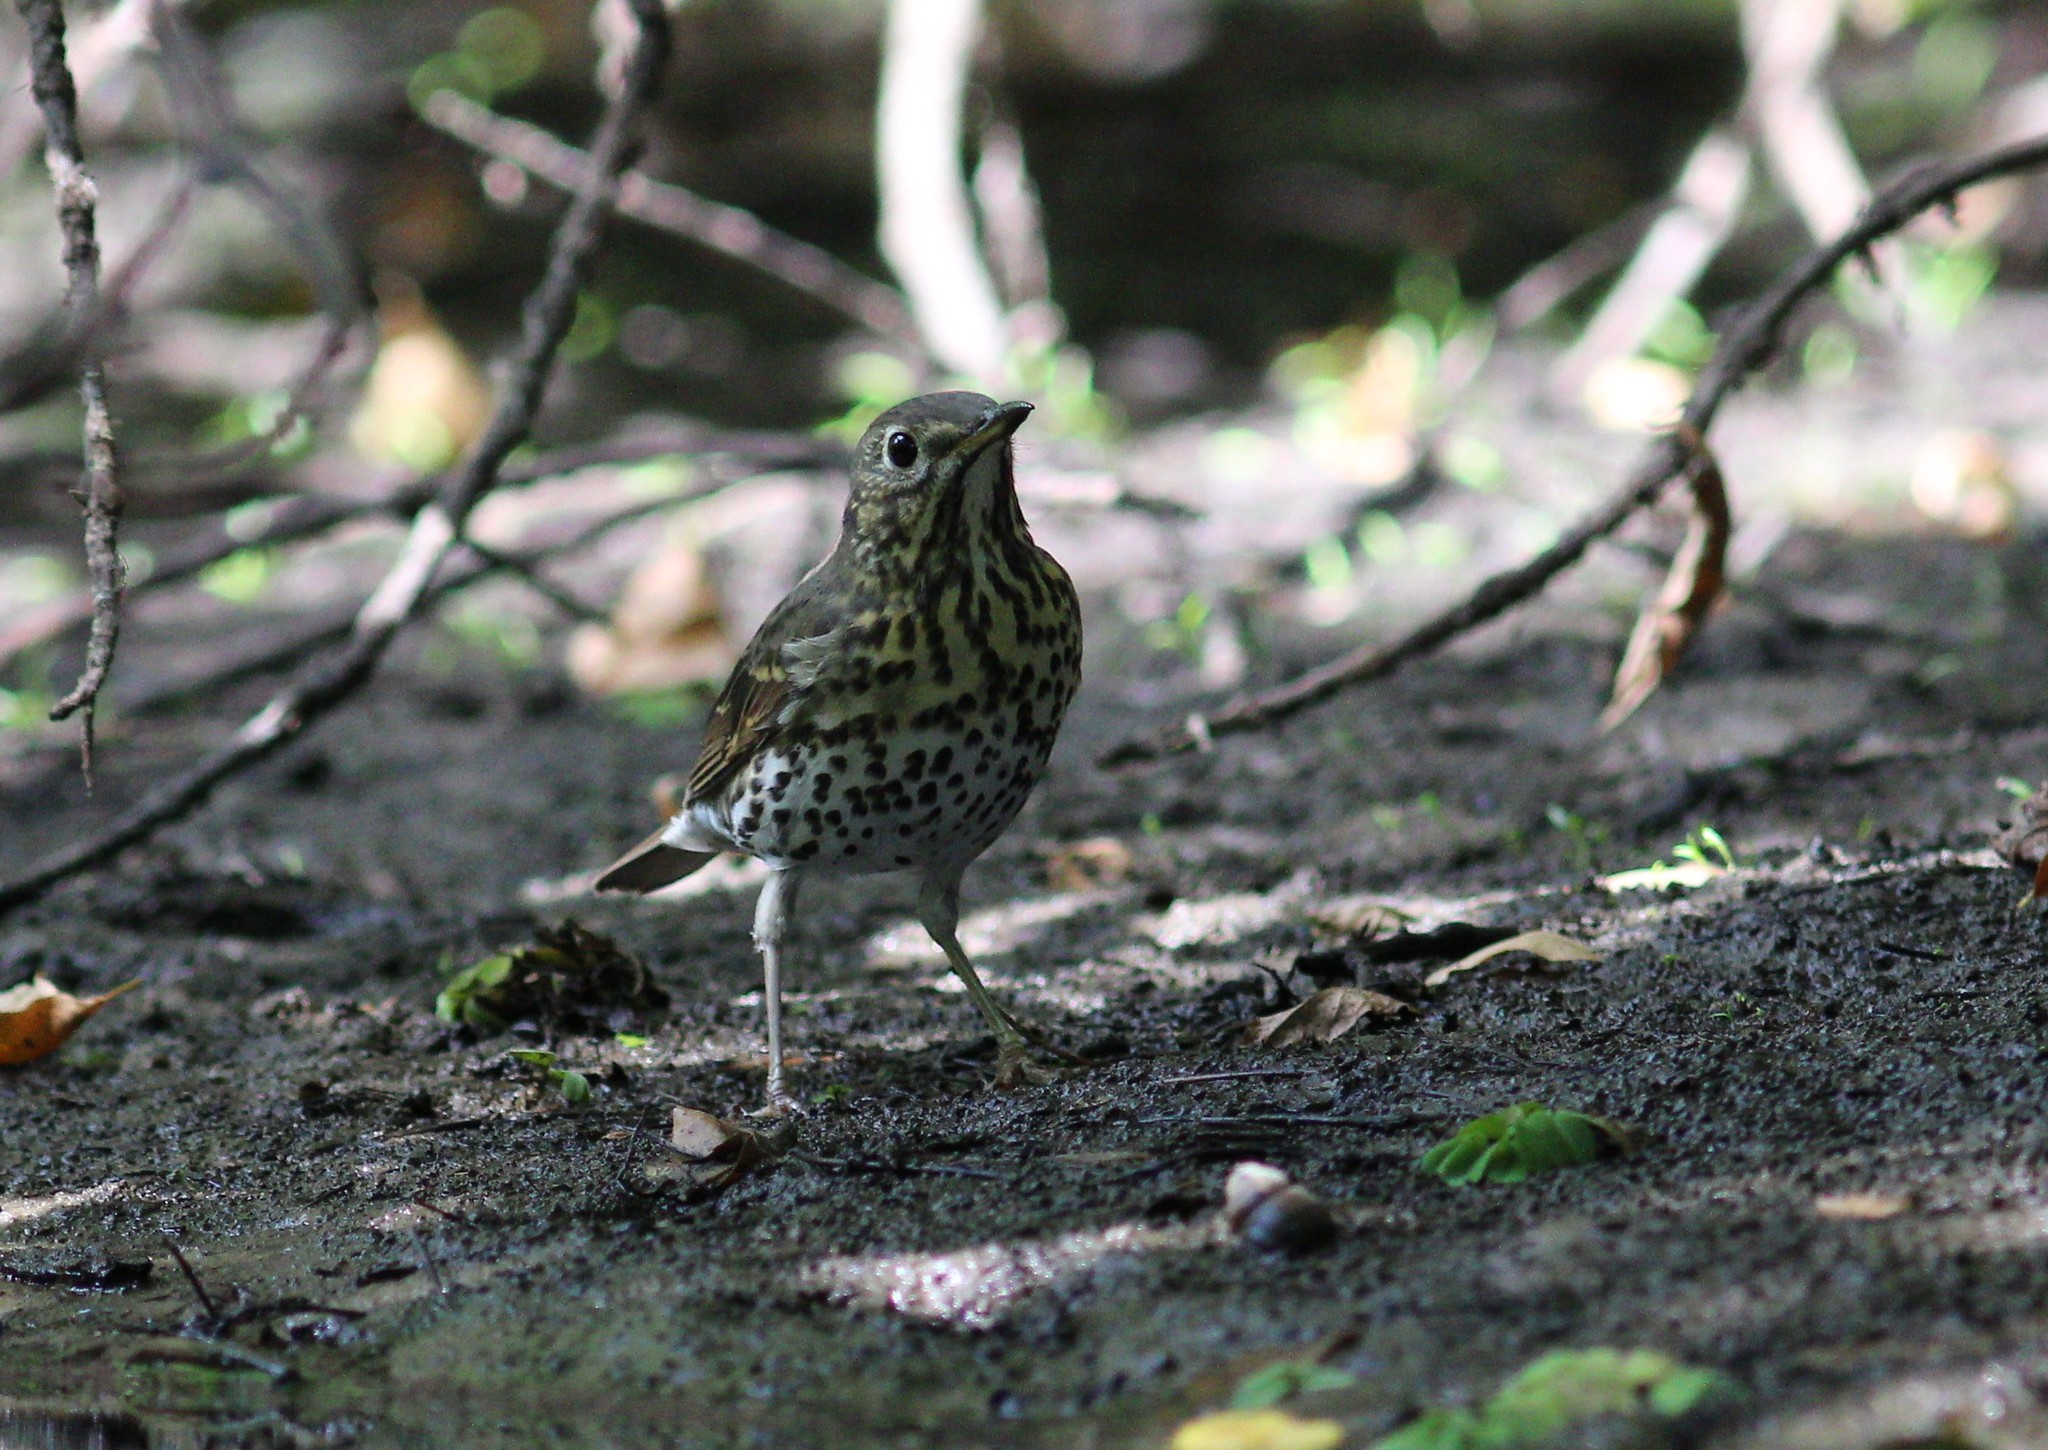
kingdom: Animalia
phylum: Chordata
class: Aves
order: Passeriformes
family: Turdidae
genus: Turdus
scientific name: Turdus philomelos
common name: Song thrush
